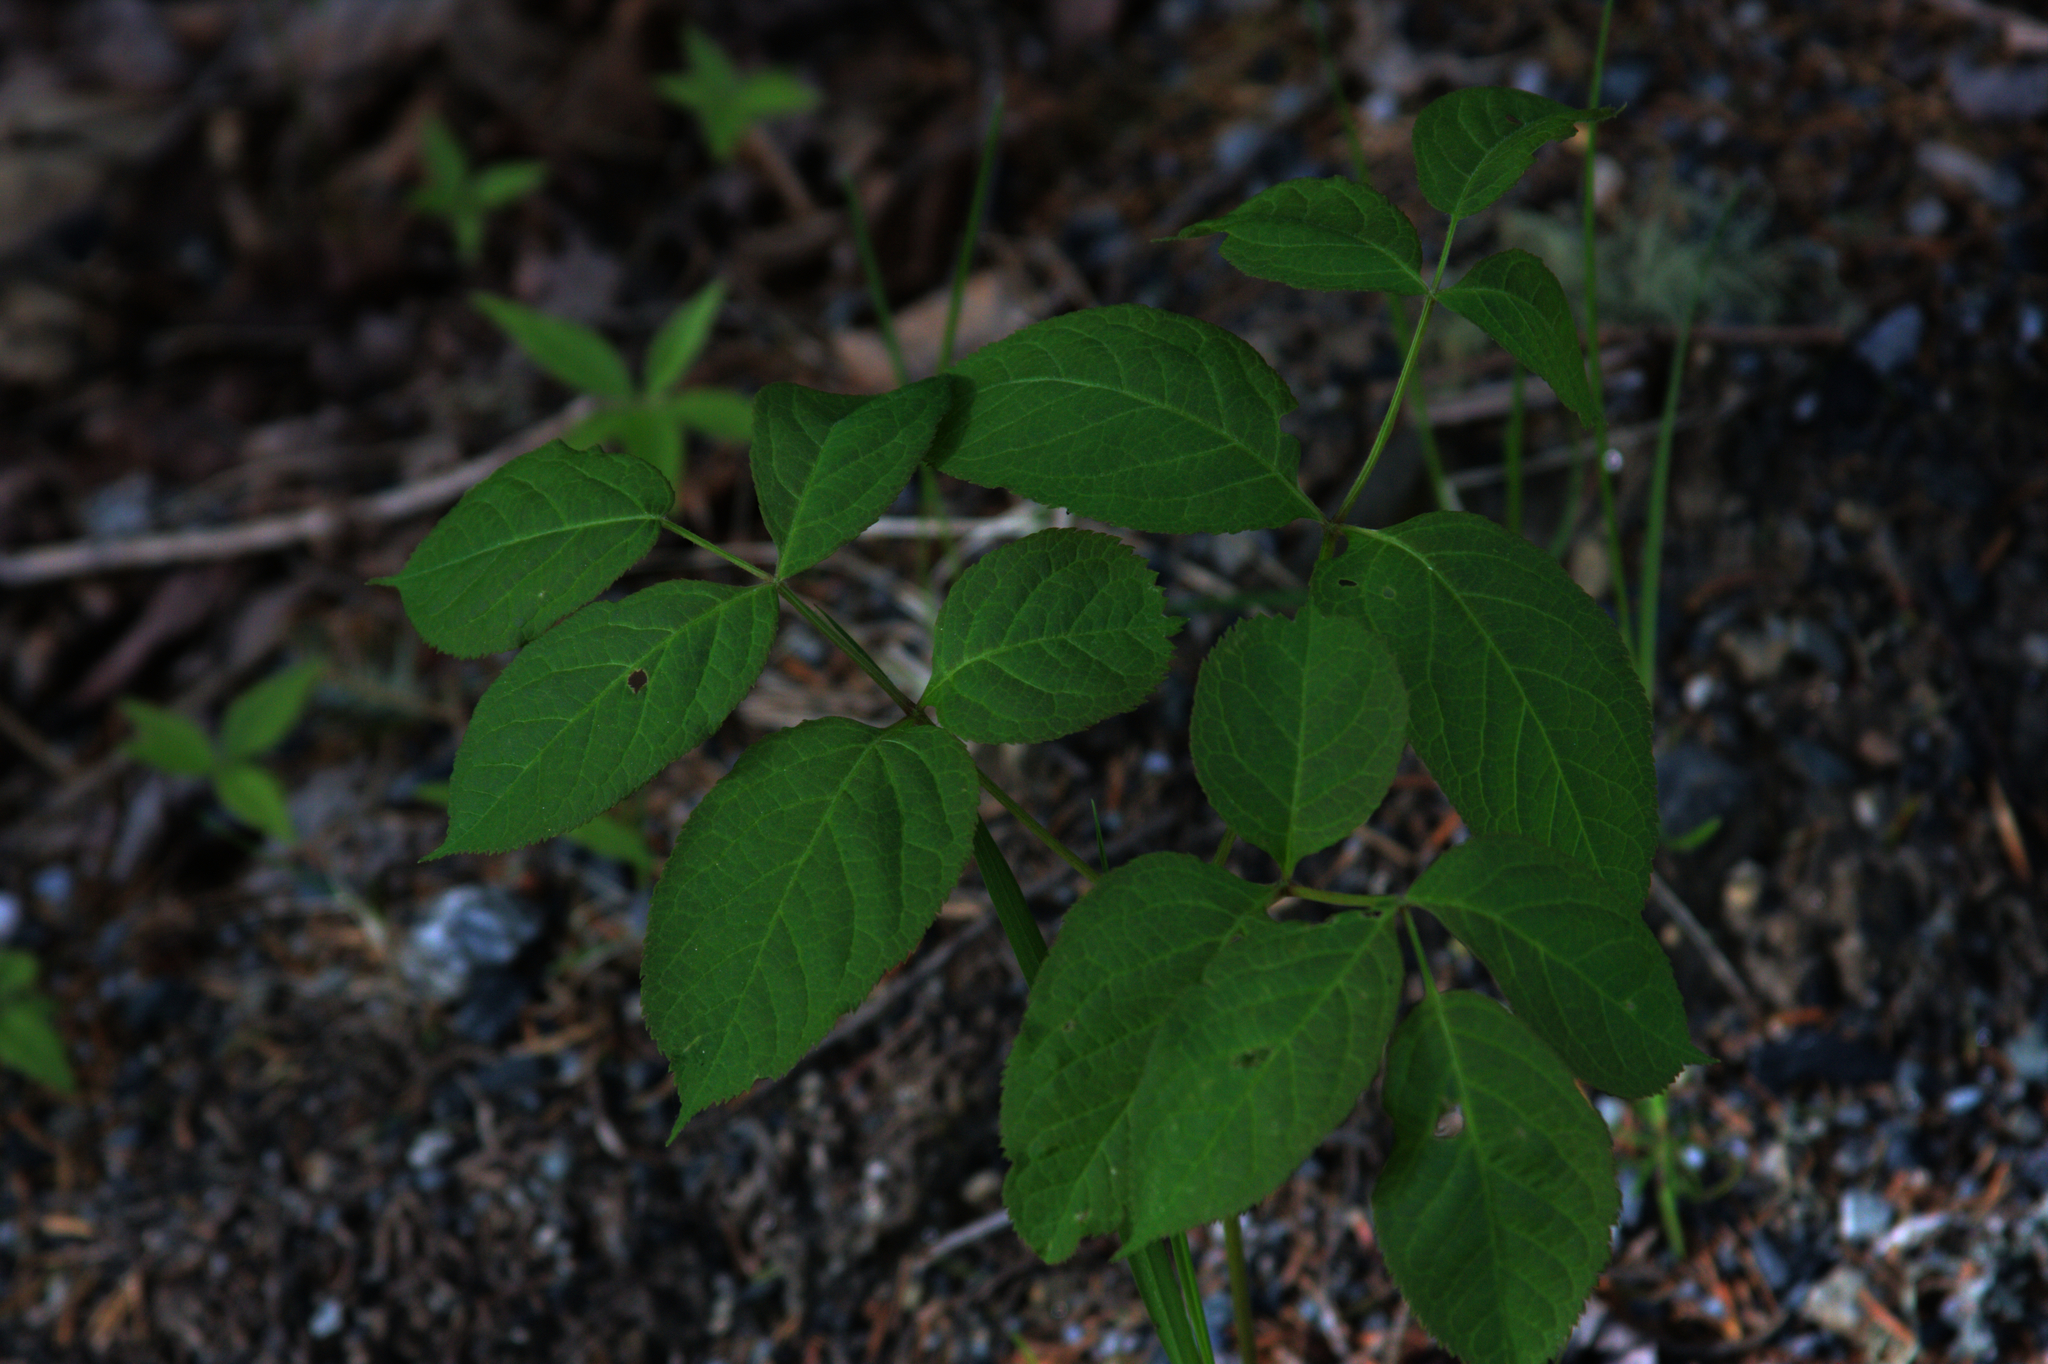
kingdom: Plantae
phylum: Tracheophyta
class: Magnoliopsida
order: Apiales
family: Araliaceae
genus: Aralia
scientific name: Aralia nudicaulis
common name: Wild sarsaparilla
